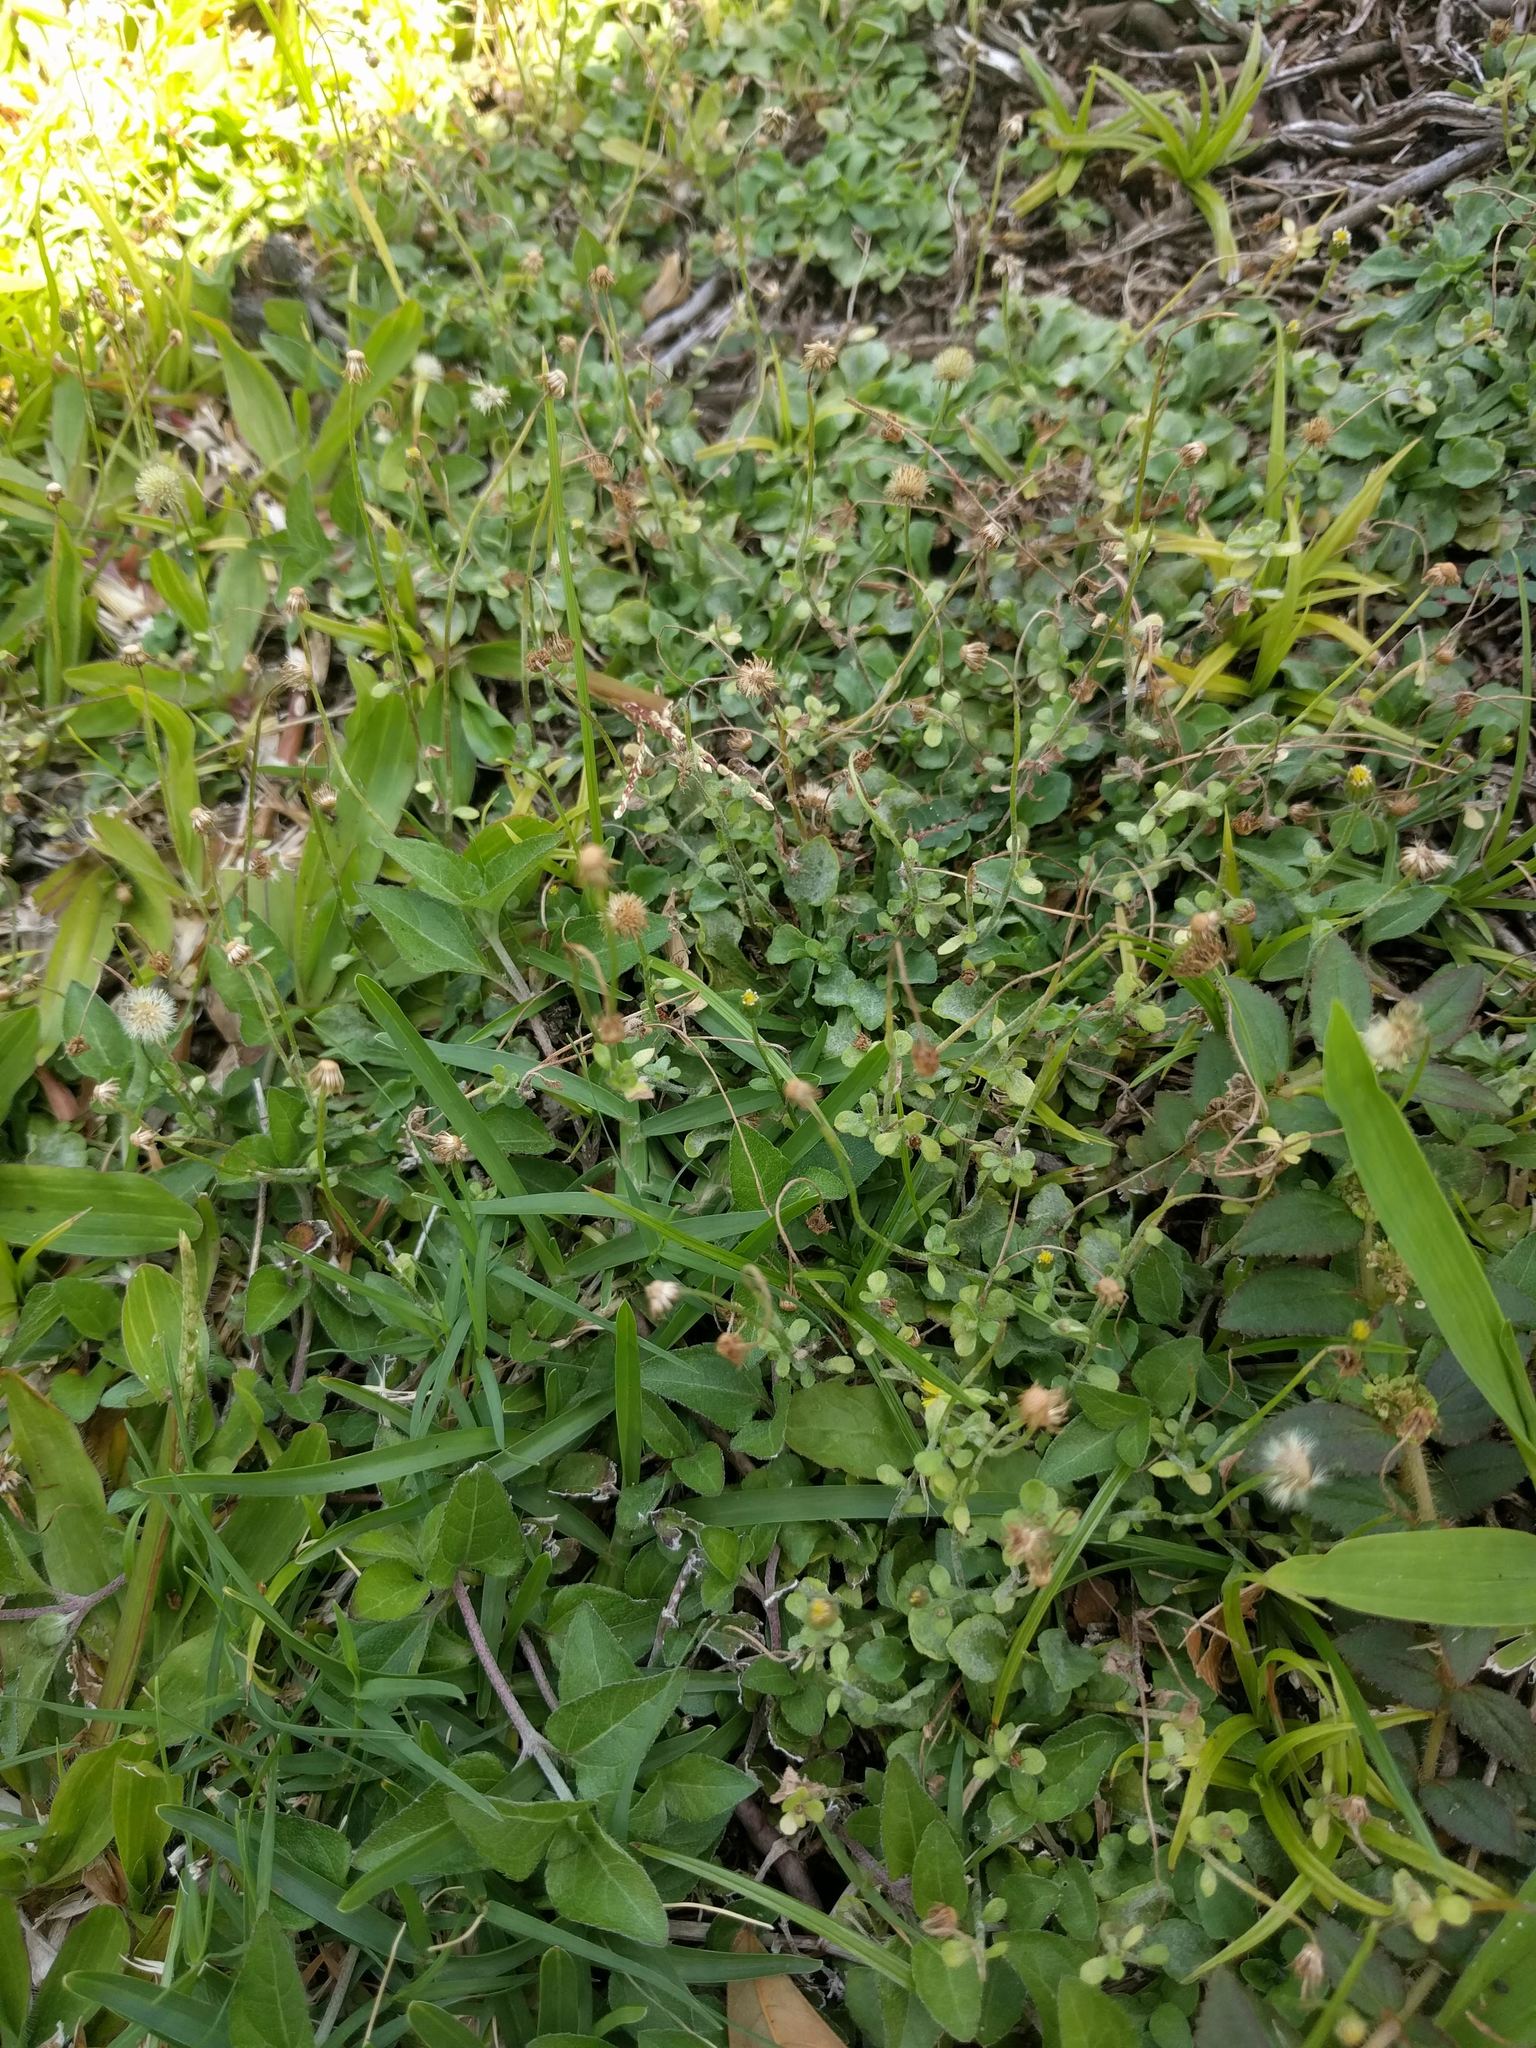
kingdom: Plantae
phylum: Tracheophyta
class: Magnoliopsida
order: Asterales
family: Asteraceae
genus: Erigeron
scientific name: Erigeron bellioides
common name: Bellorita
